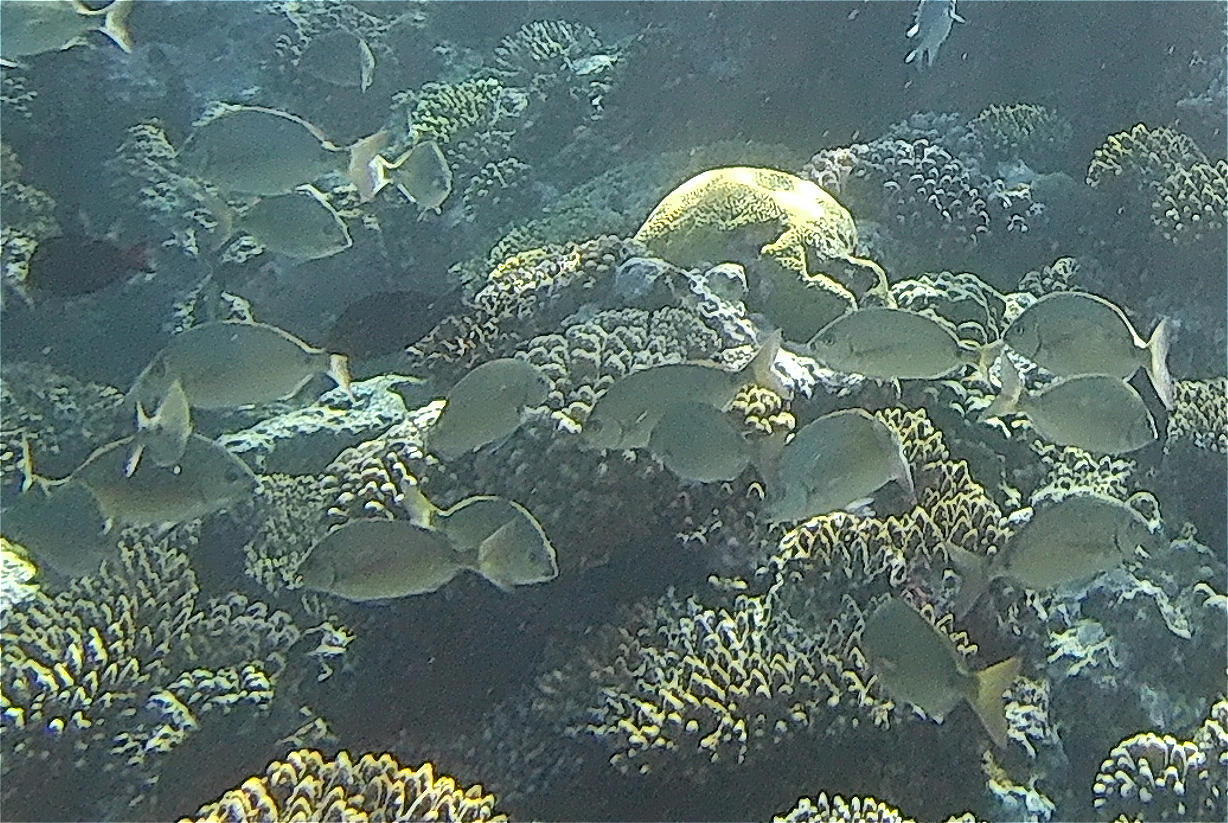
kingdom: Animalia
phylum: Chordata
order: Perciformes
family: Sparidae
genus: Diplodus
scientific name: Diplodus noct
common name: Arabian pinfish
